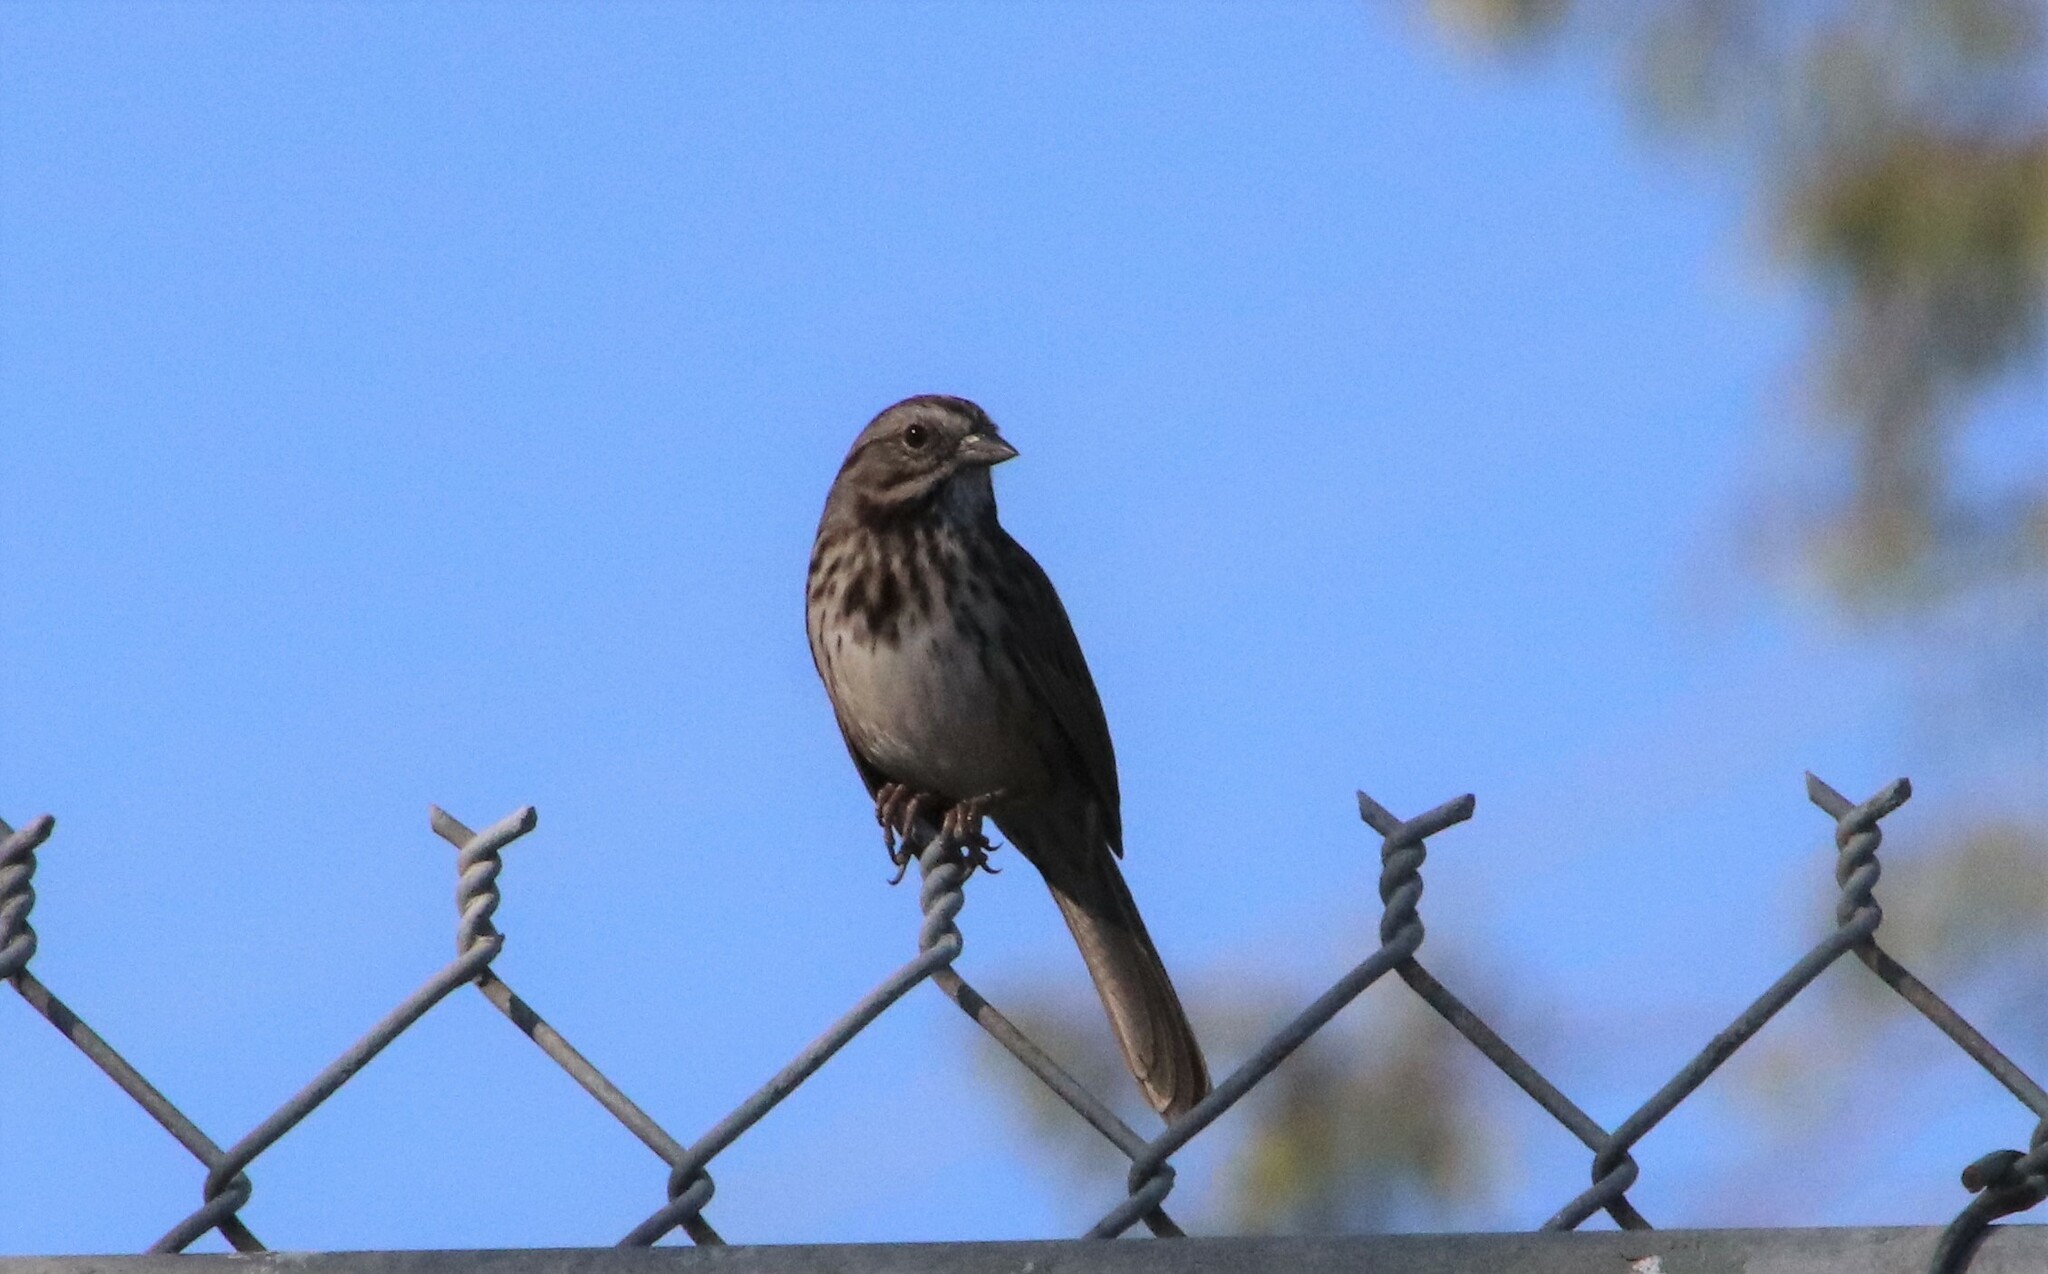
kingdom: Animalia
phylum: Chordata
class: Aves
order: Passeriformes
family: Passerellidae
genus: Melospiza
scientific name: Melospiza melodia
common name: Song sparrow
